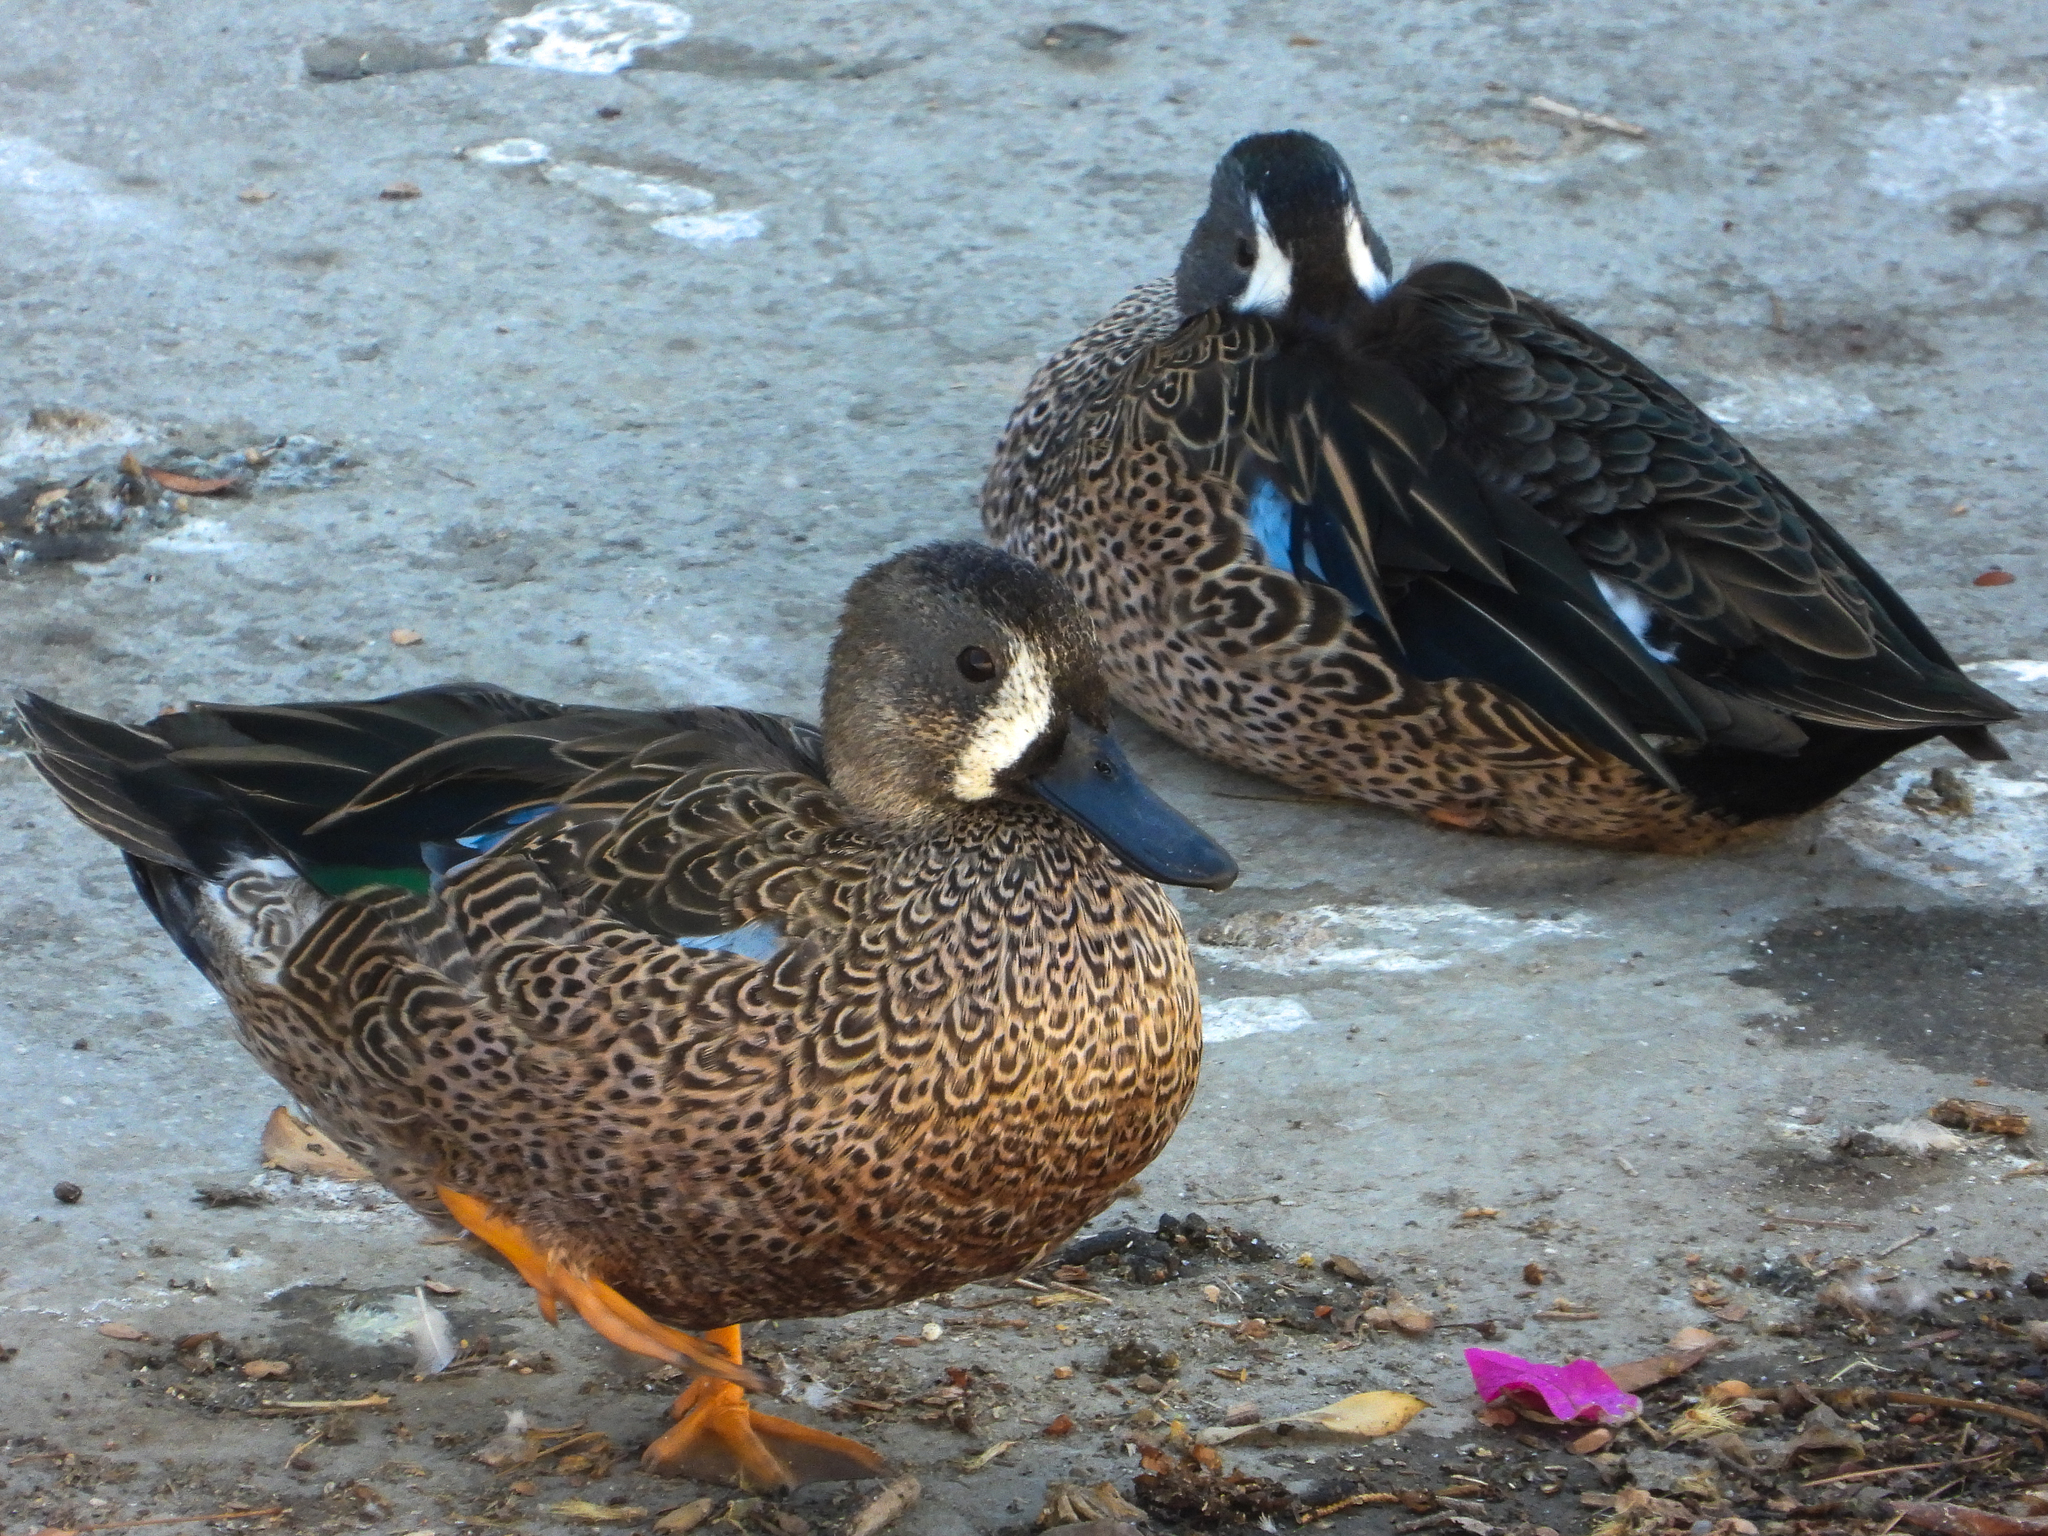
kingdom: Animalia
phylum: Chordata
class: Aves
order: Anseriformes
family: Anatidae
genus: Spatula
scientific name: Spatula discors
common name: Blue-winged teal
